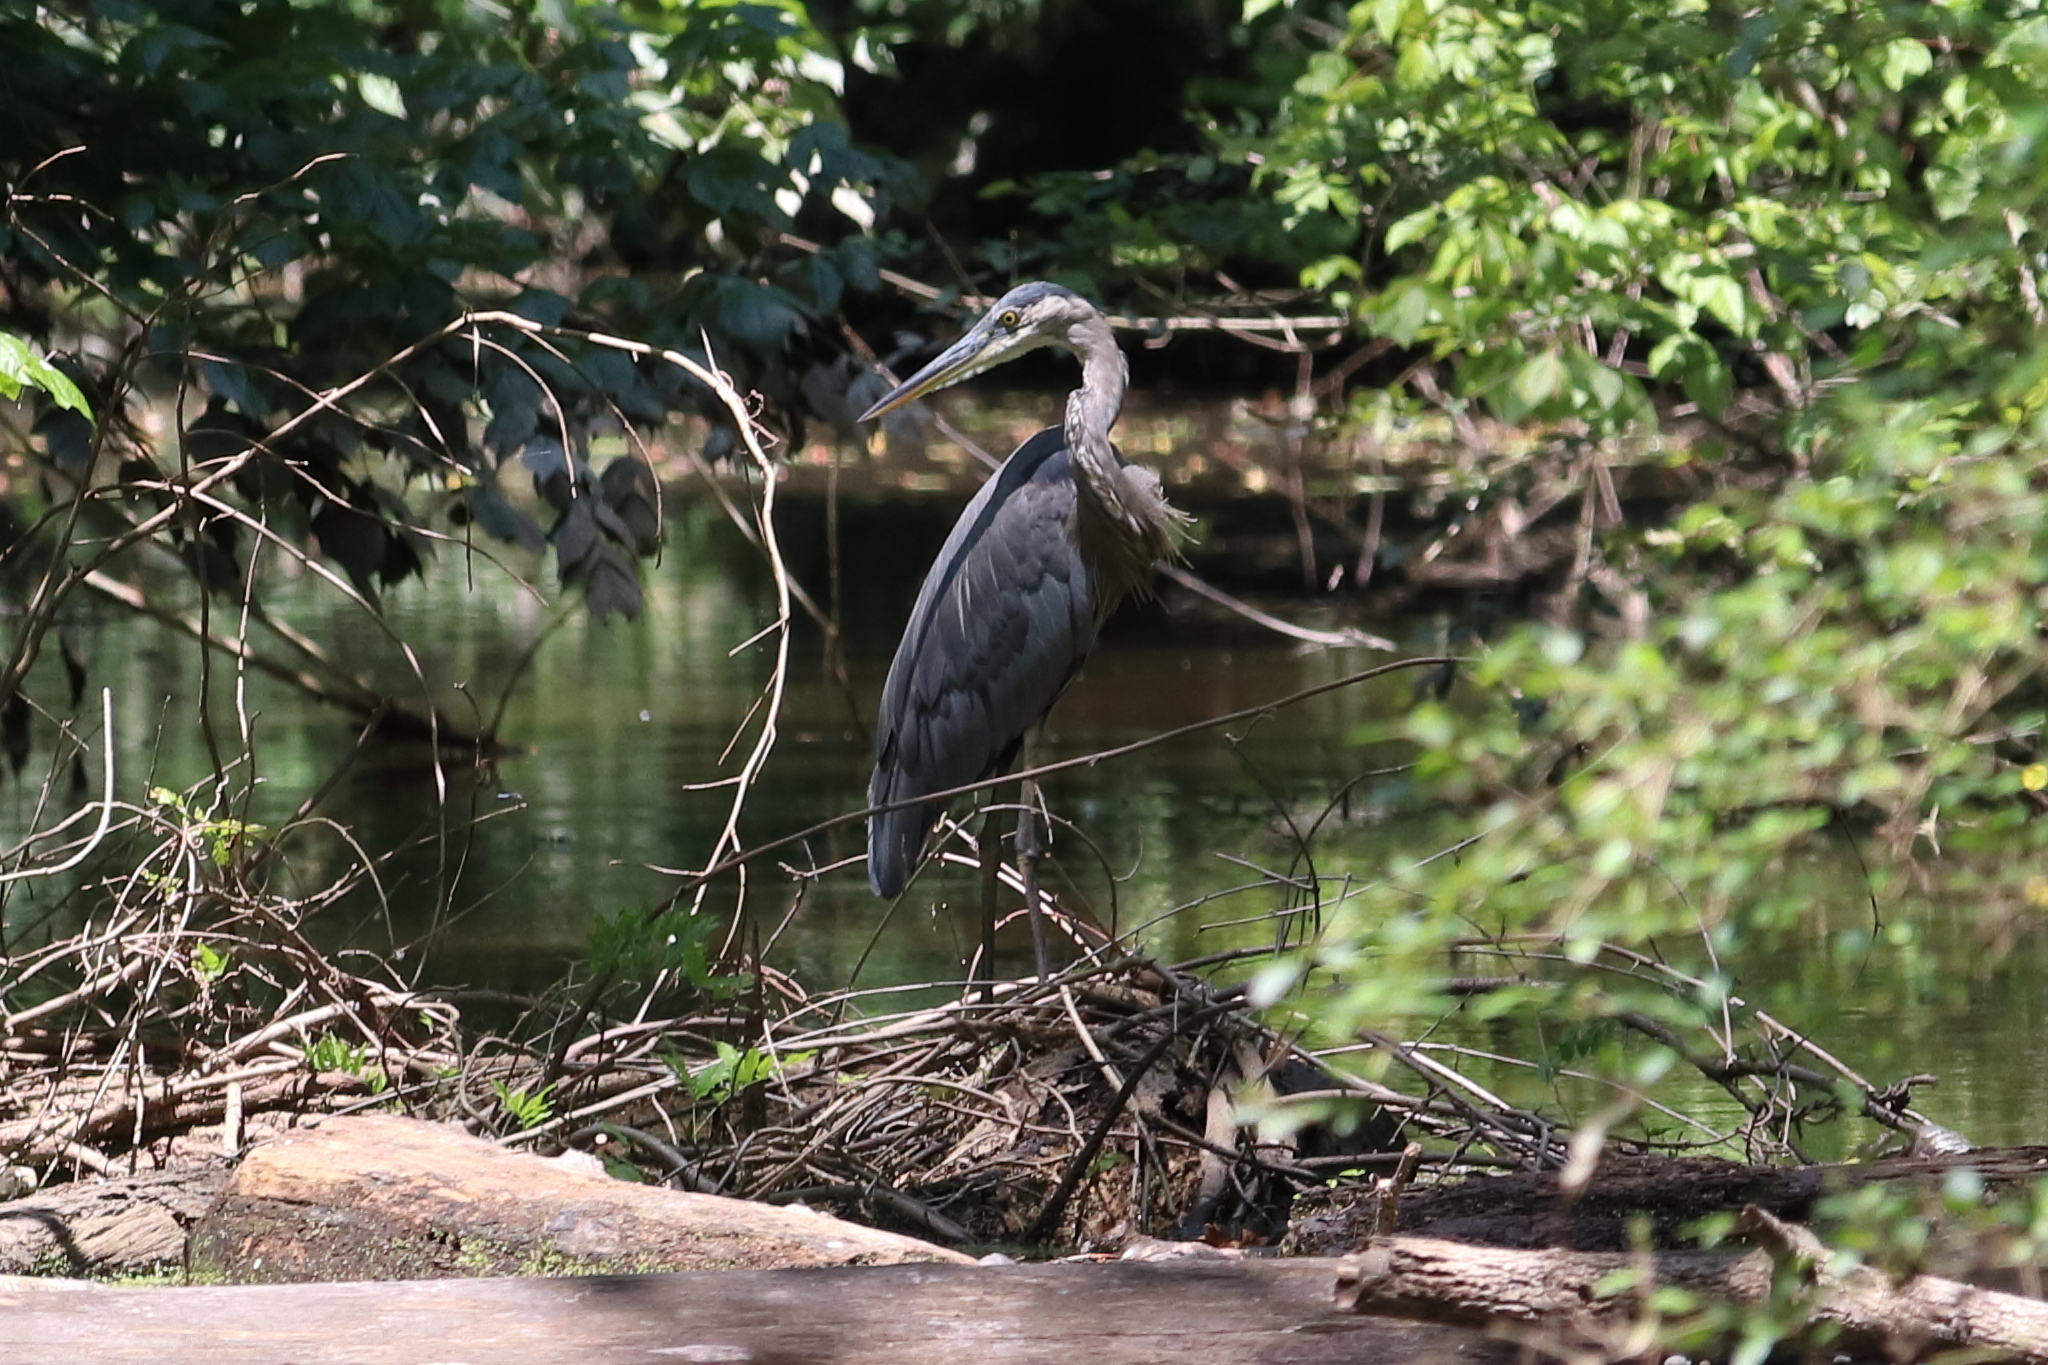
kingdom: Animalia
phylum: Chordata
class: Aves
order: Pelecaniformes
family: Ardeidae
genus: Ardea
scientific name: Ardea herodias
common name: Great blue heron
